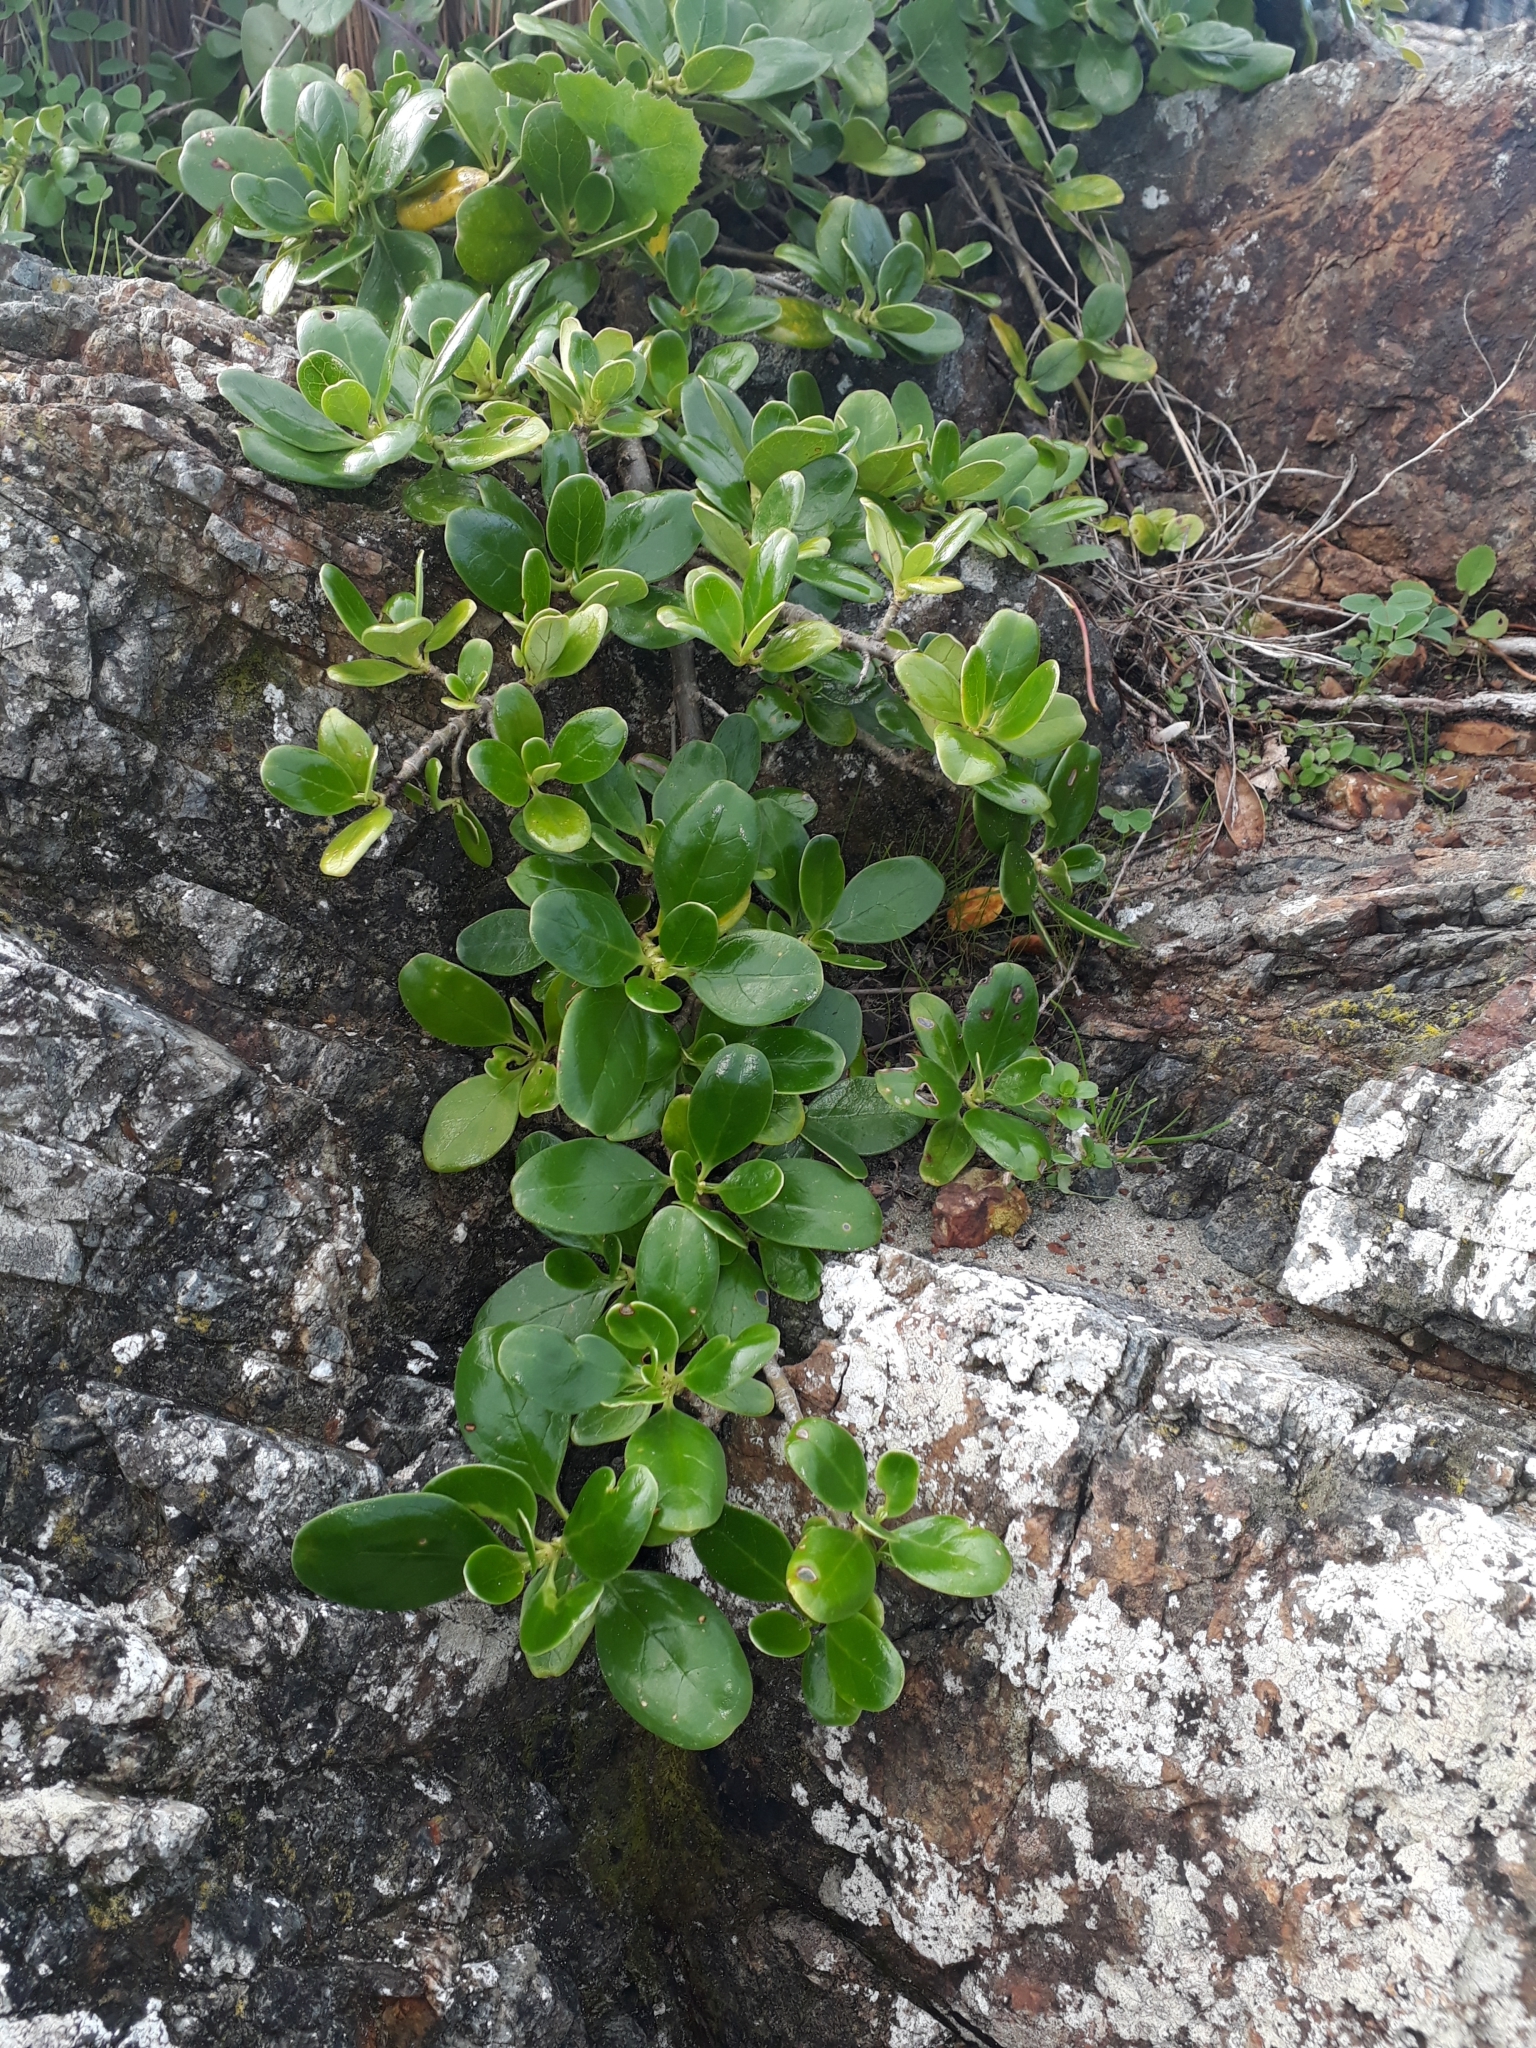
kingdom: Plantae
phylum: Tracheophyta
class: Magnoliopsida
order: Gentianales
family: Rubiaceae
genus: Coprosma
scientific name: Coprosma repens
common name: Tree bedstraw
